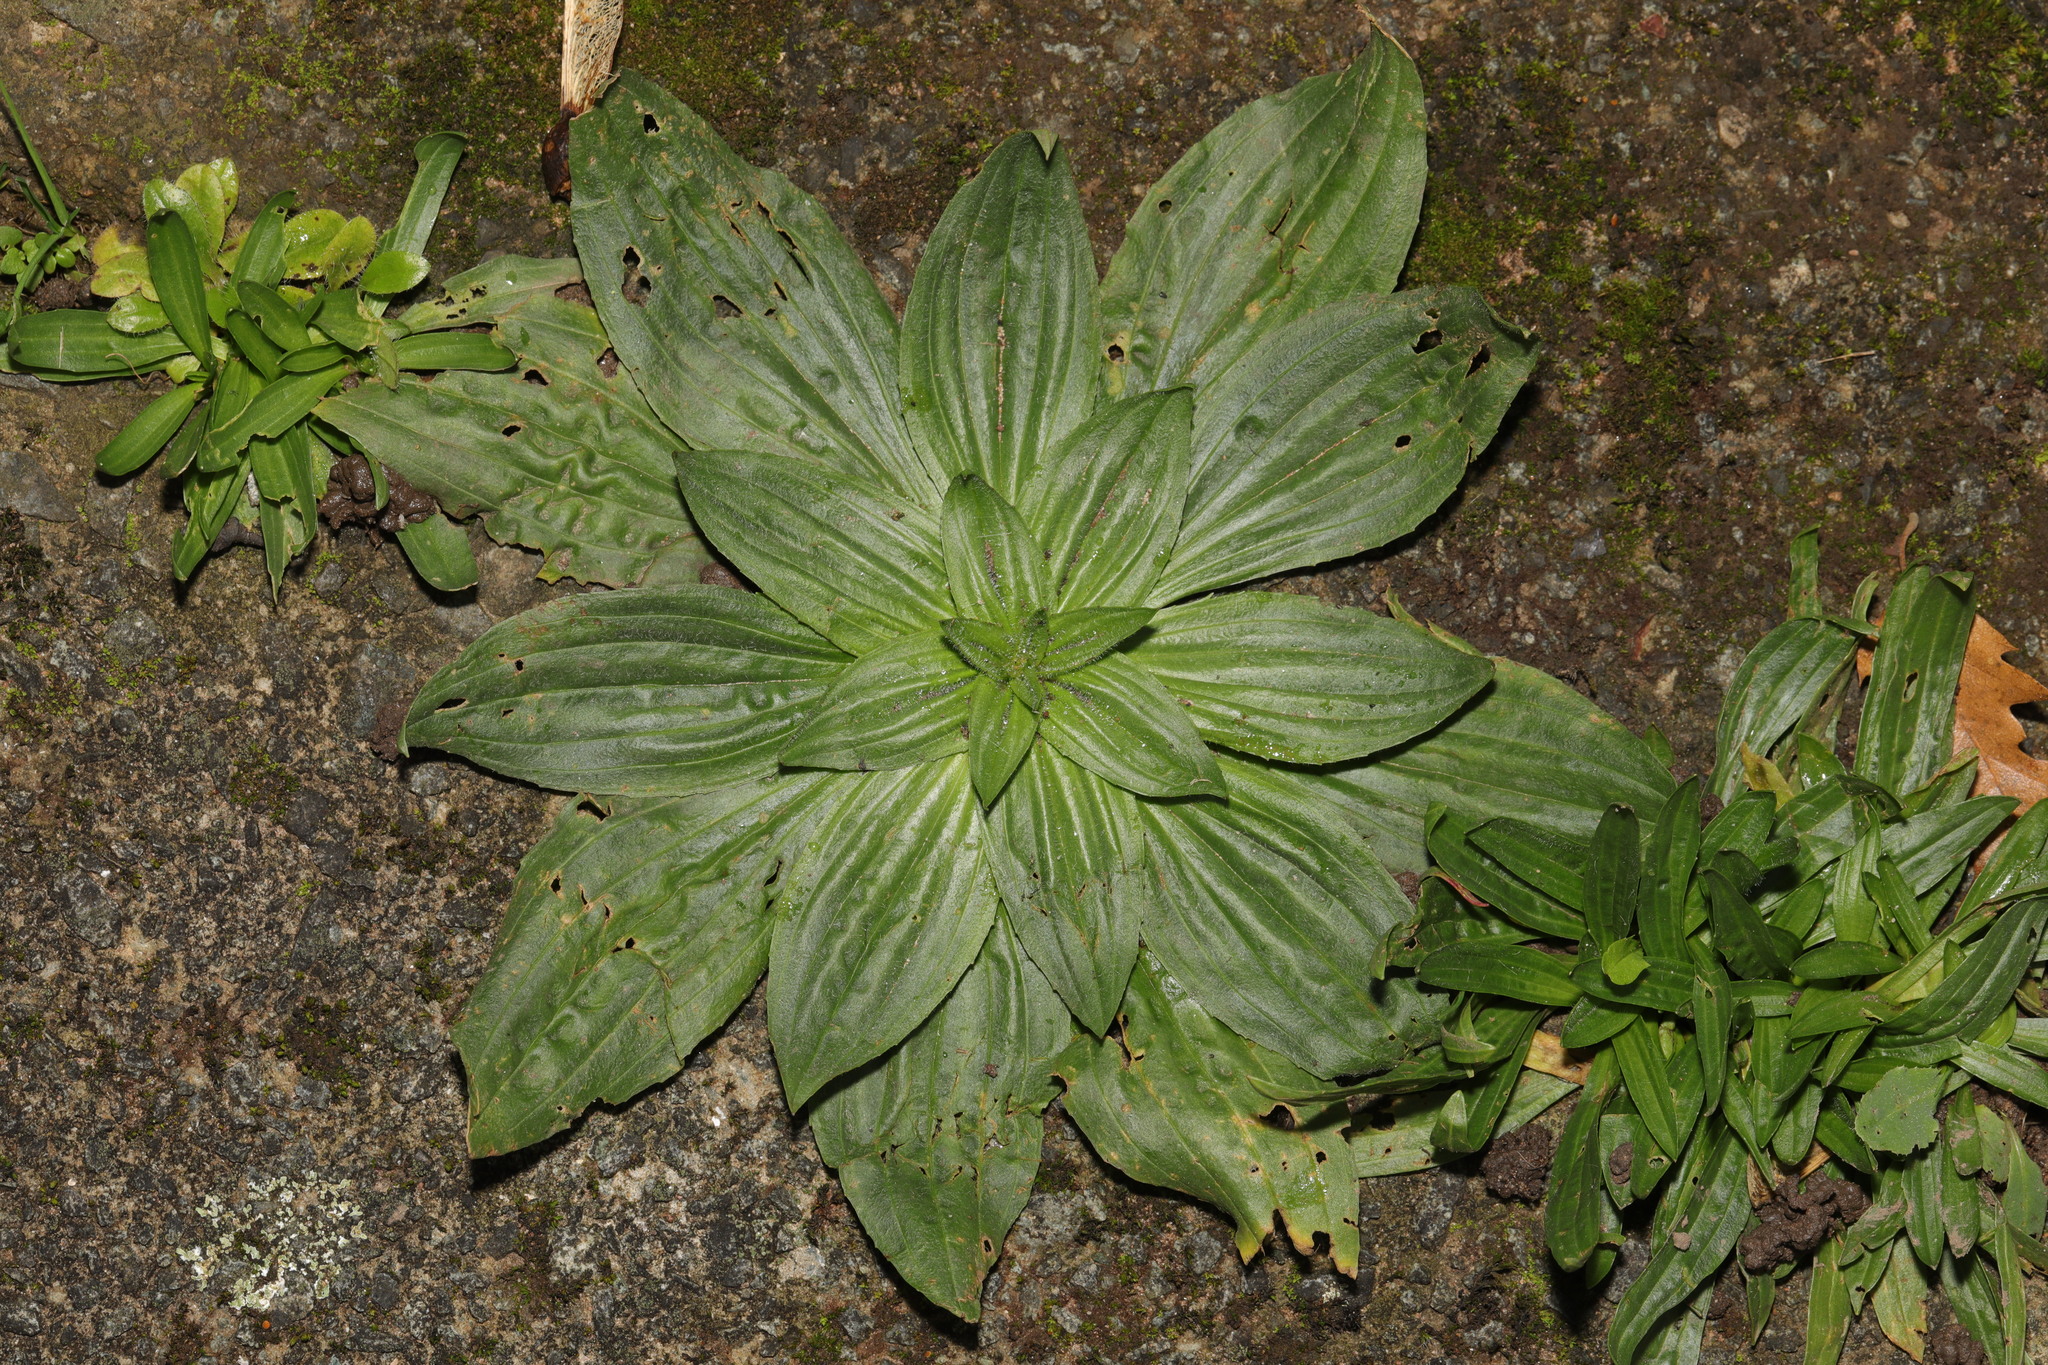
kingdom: Plantae
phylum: Tracheophyta
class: Magnoliopsida
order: Lamiales
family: Plantaginaceae
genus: Plantago
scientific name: Plantago lanceolata
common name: Ribwort plantain
